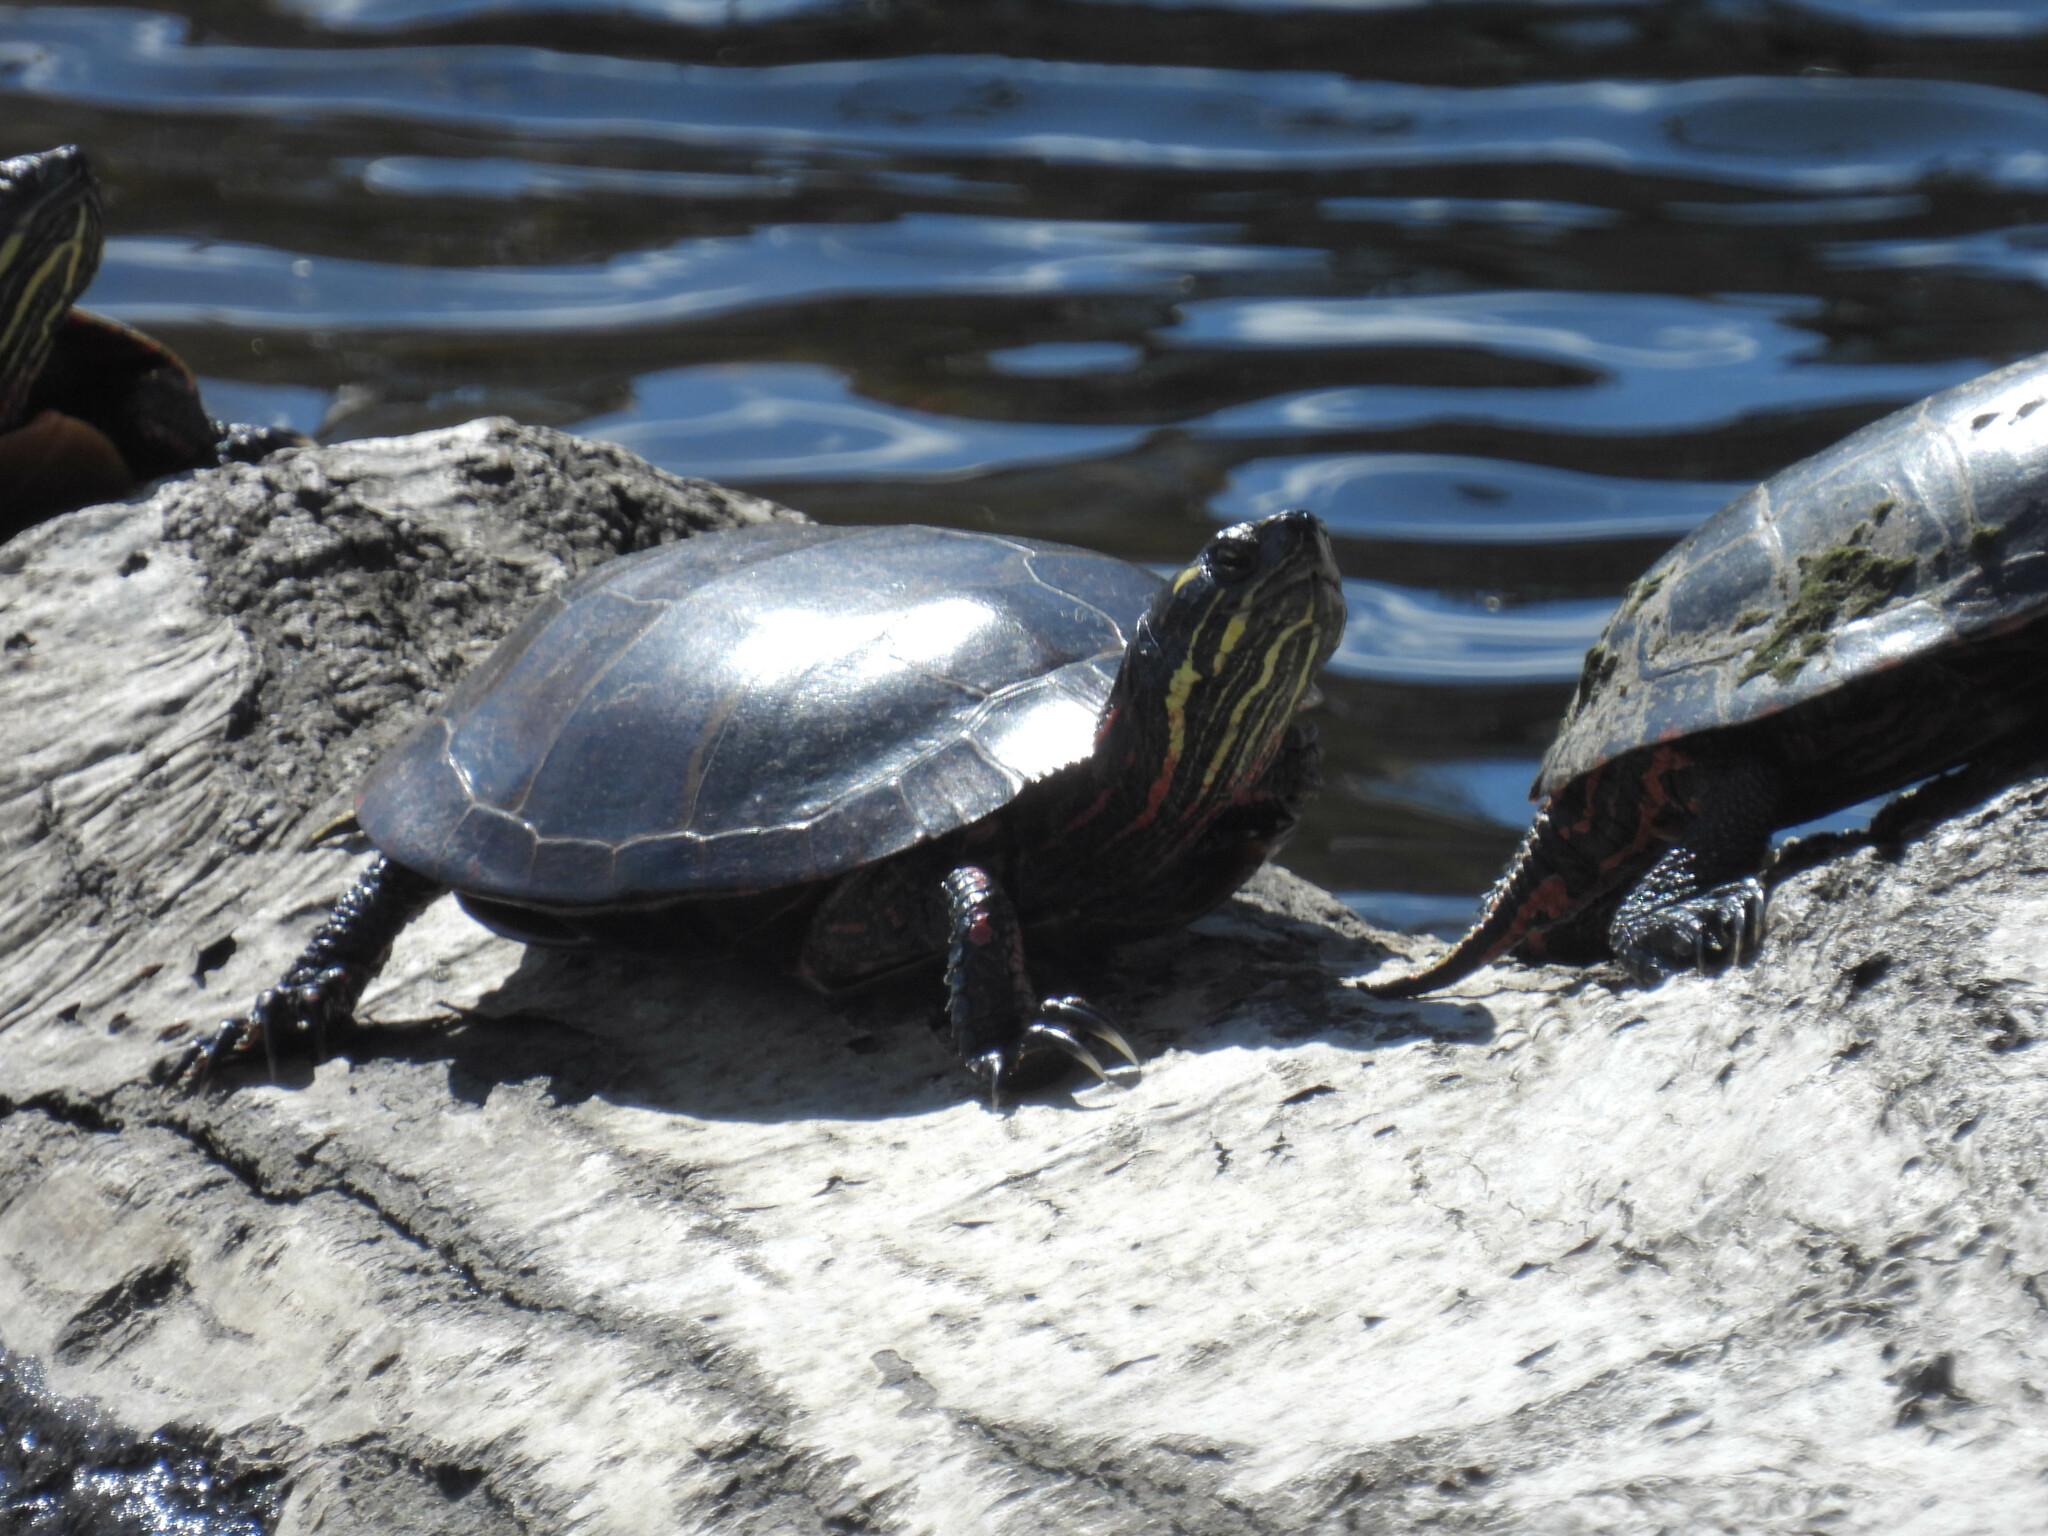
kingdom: Animalia
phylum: Chordata
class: Testudines
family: Emydidae
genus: Chrysemys
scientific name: Chrysemys picta
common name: Painted turtle
